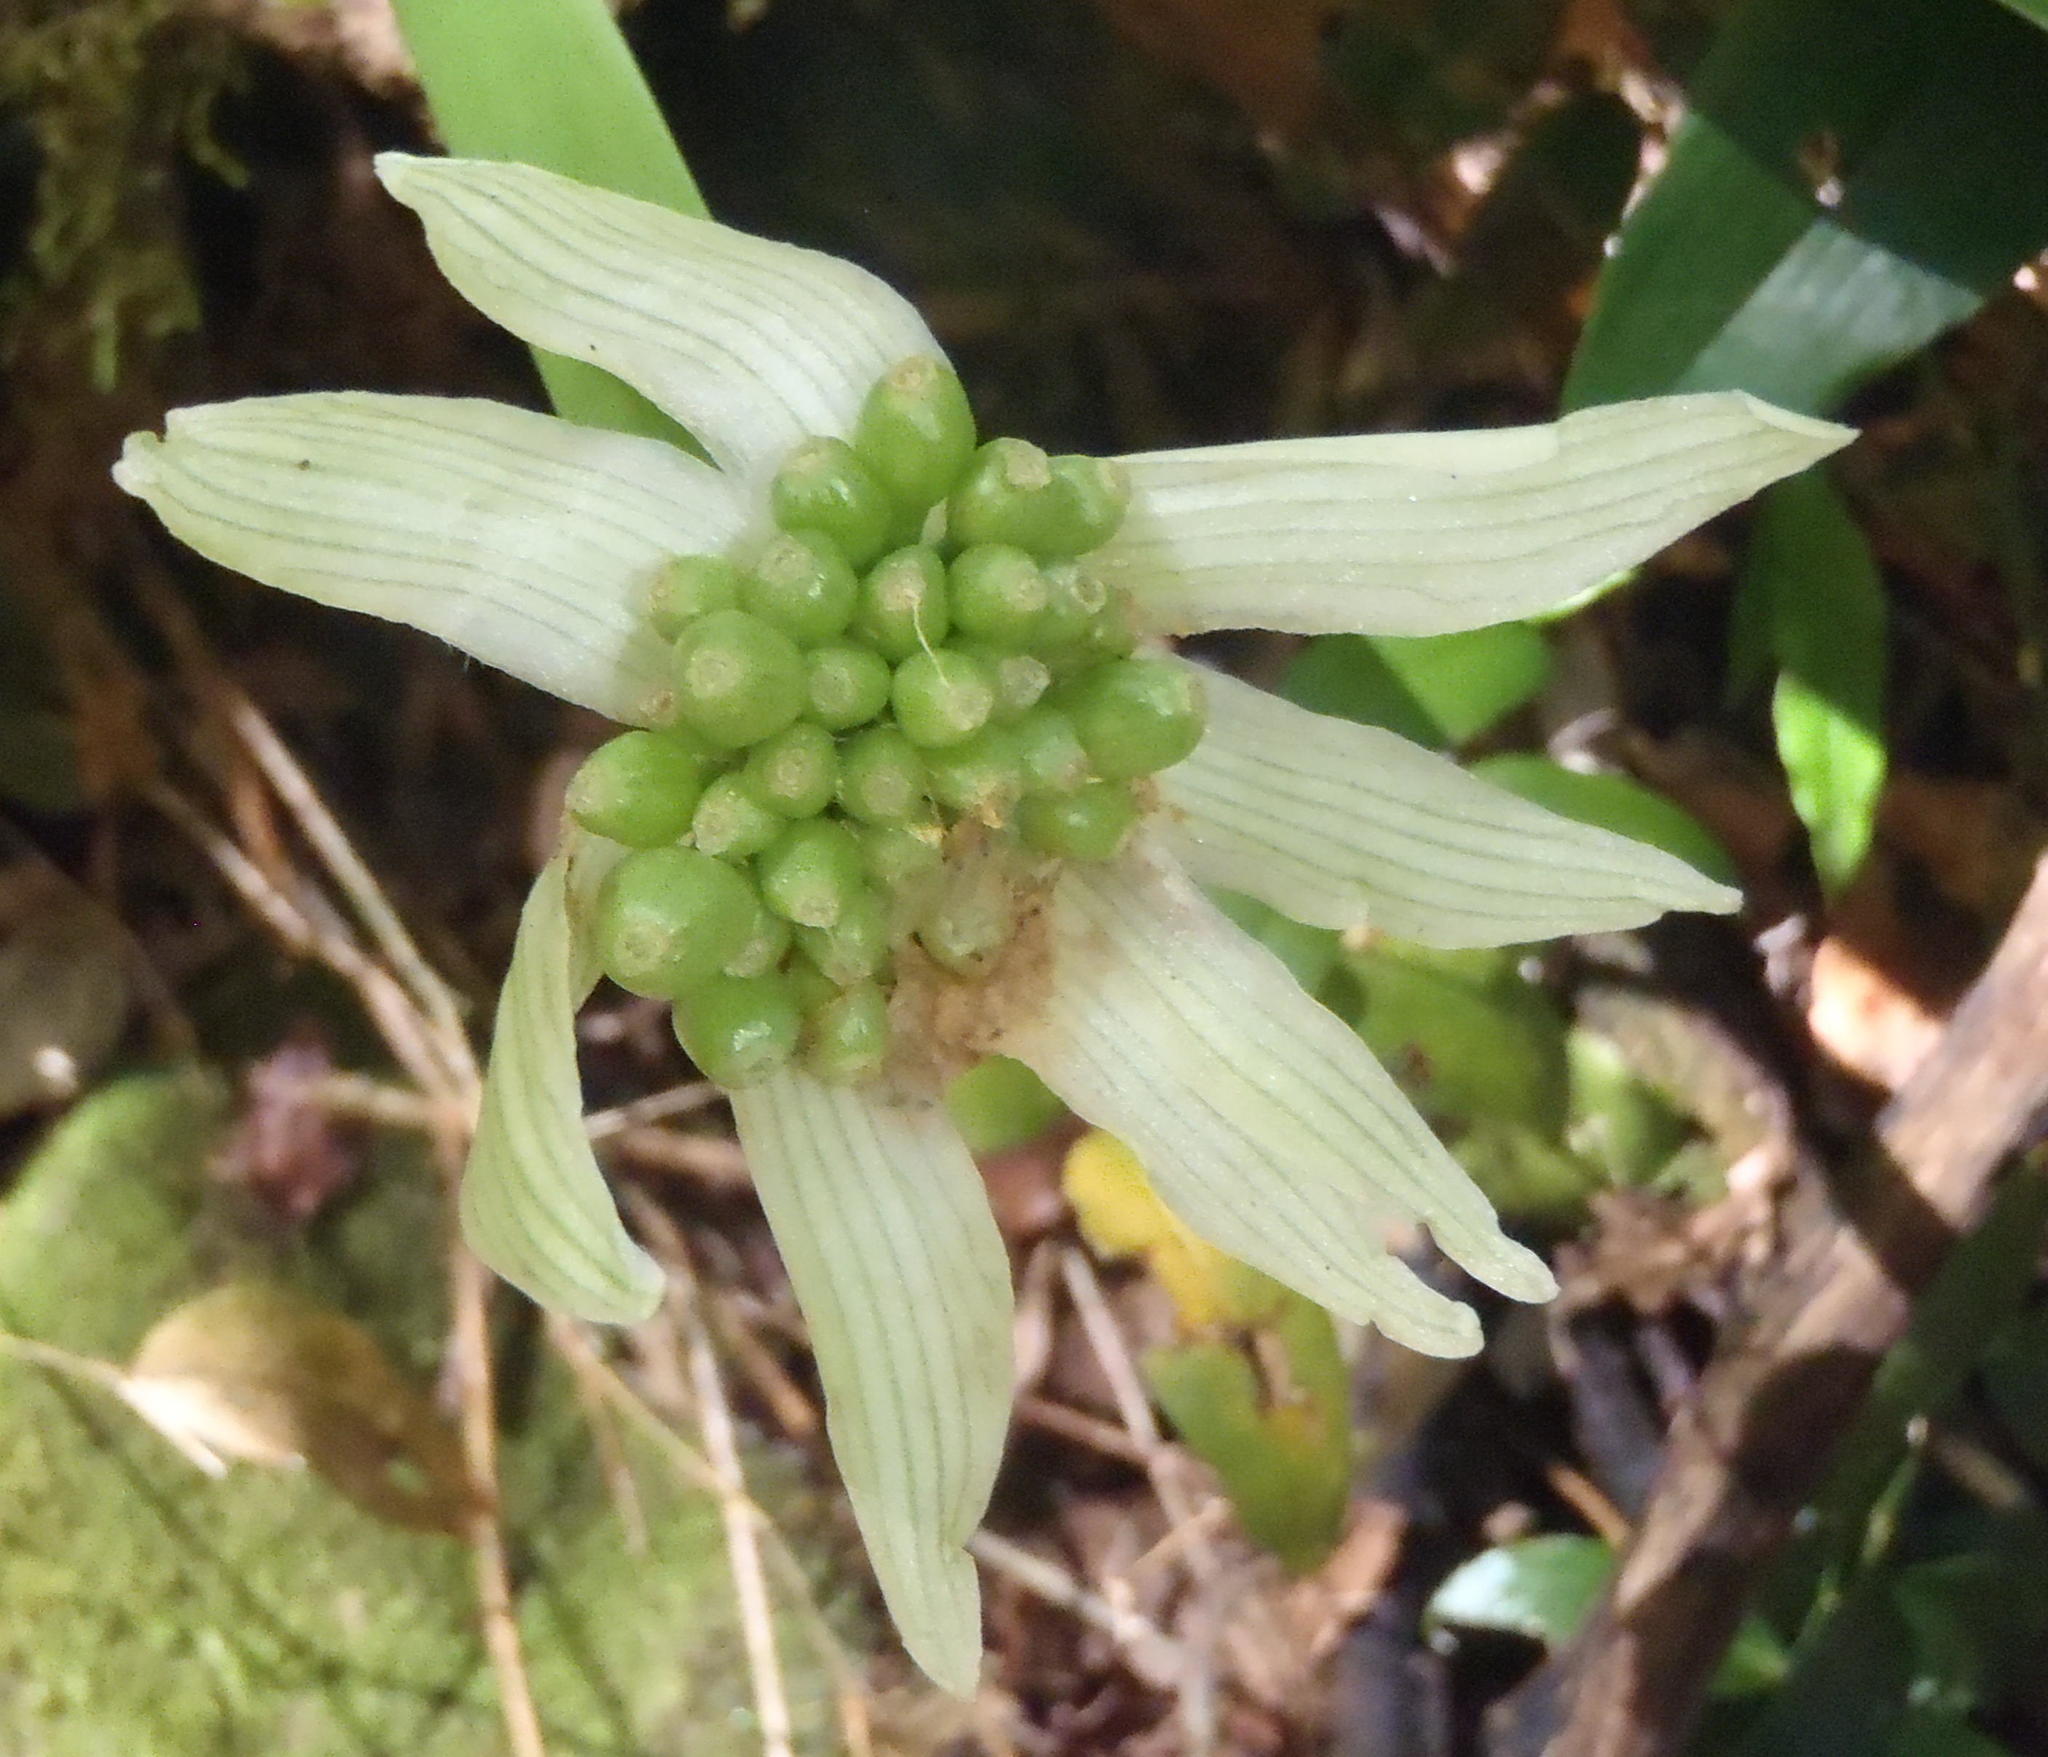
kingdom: Plantae
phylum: Tracheophyta
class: Liliopsida
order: Asparagales
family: Amaryllidaceae
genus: Haemanthus
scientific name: Haemanthus albiflos
